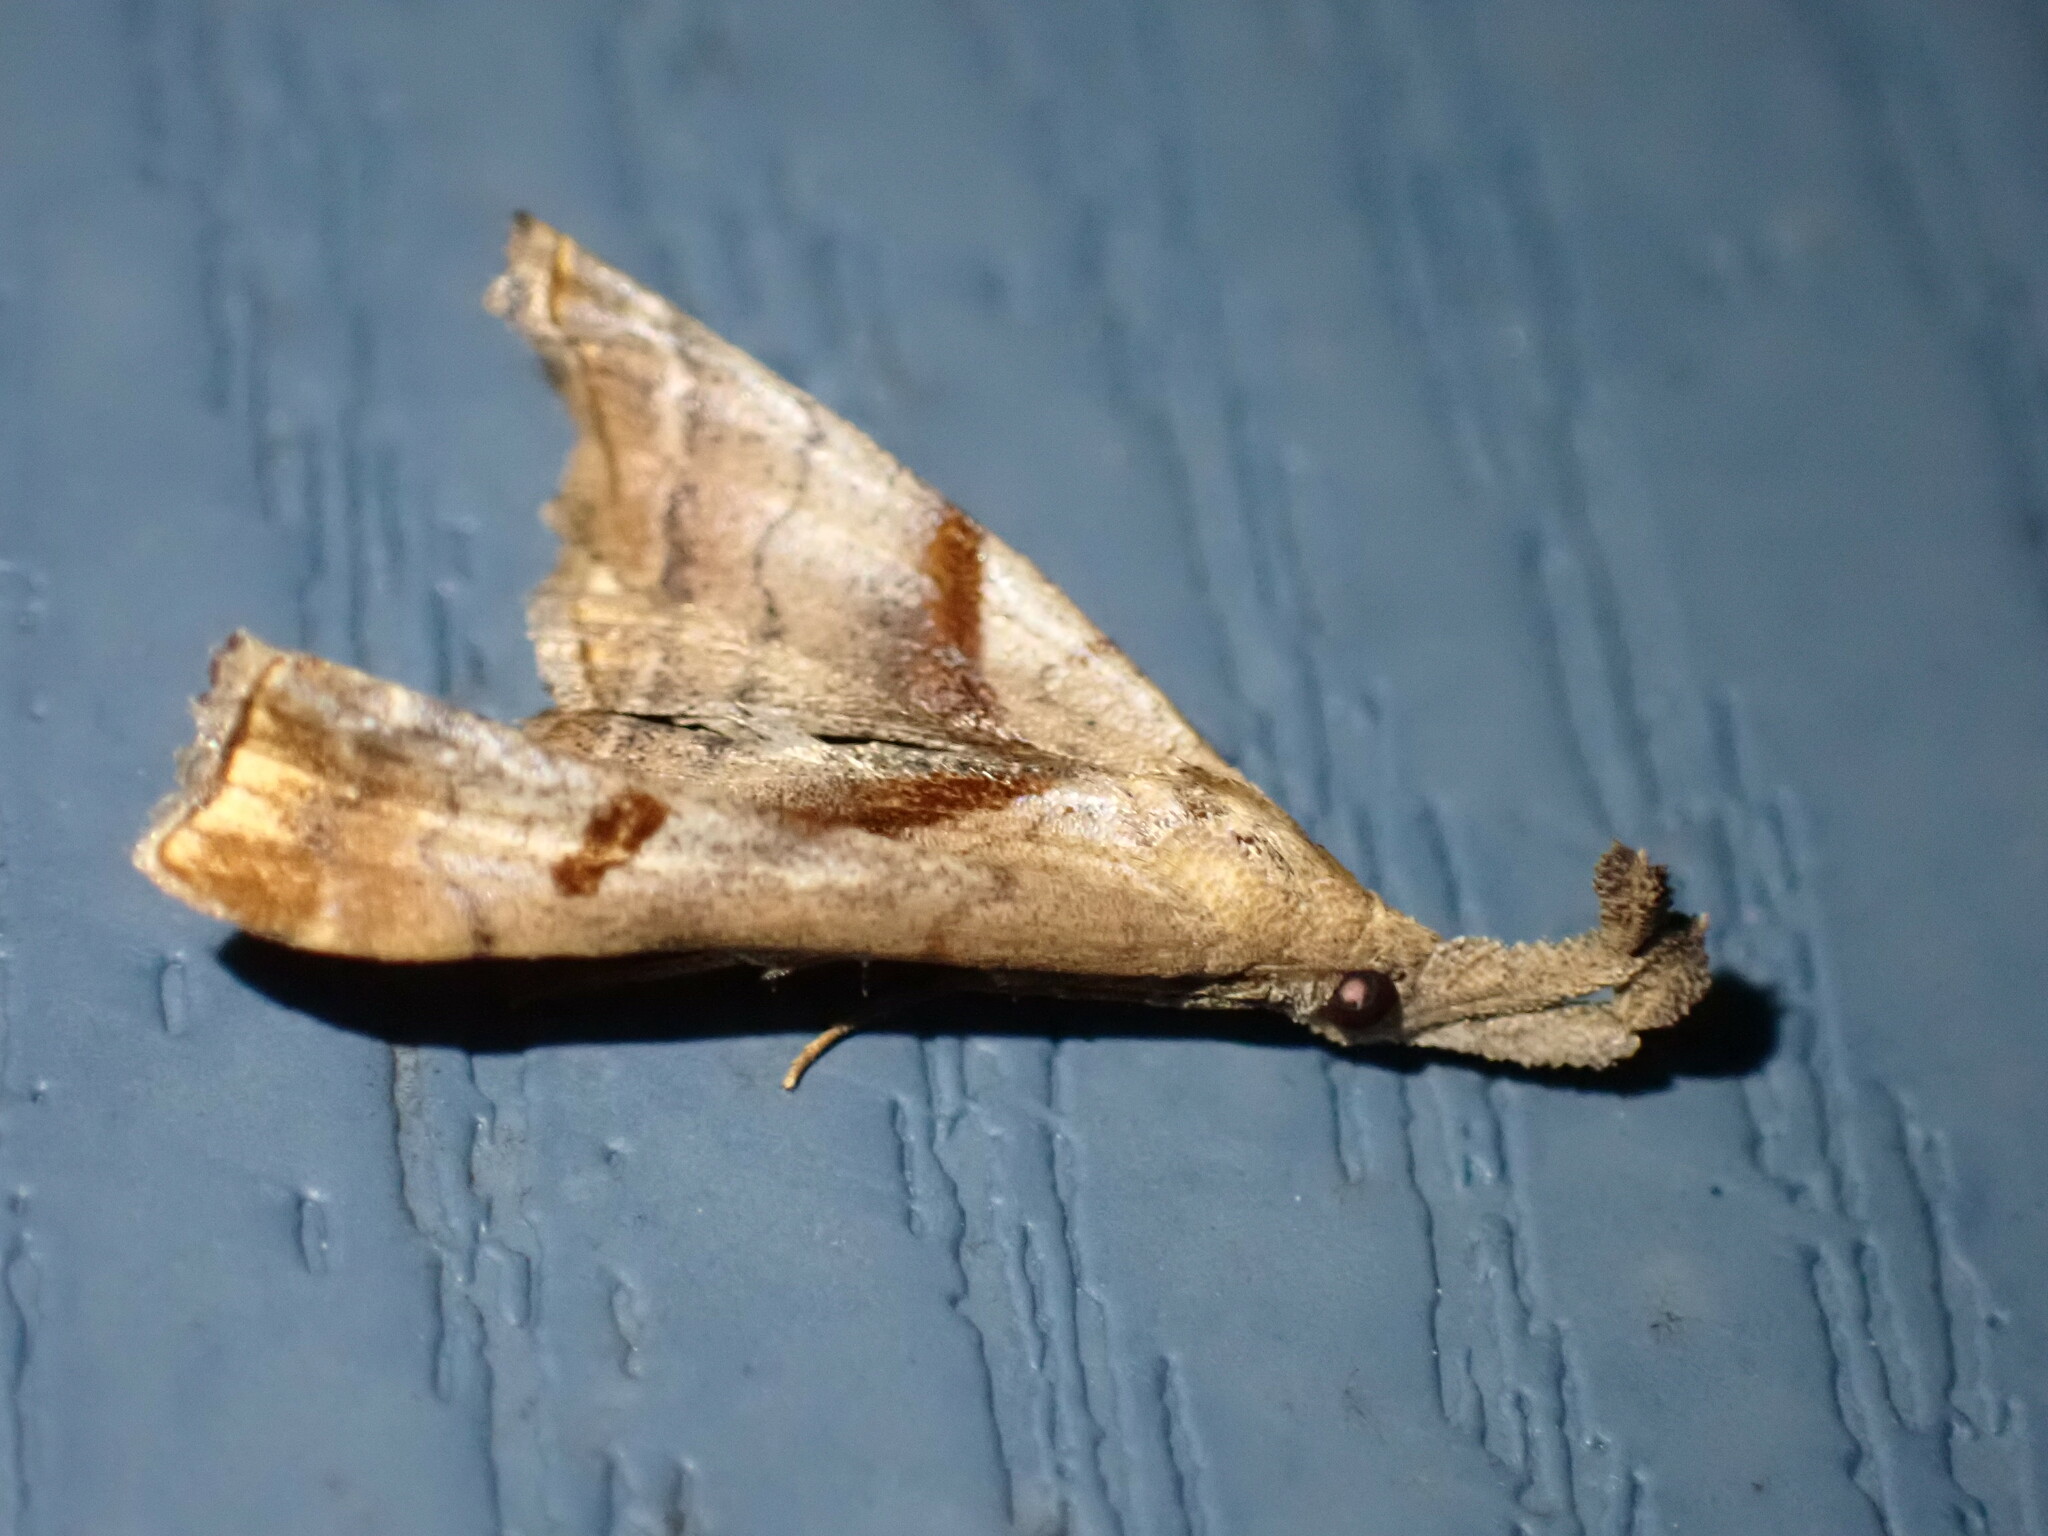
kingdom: Animalia
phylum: Arthropoda
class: Insecta
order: Lepidoptera
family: Erebidae
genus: Palthis
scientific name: Palthis angulalis
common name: Dark-spotted palthis moth
